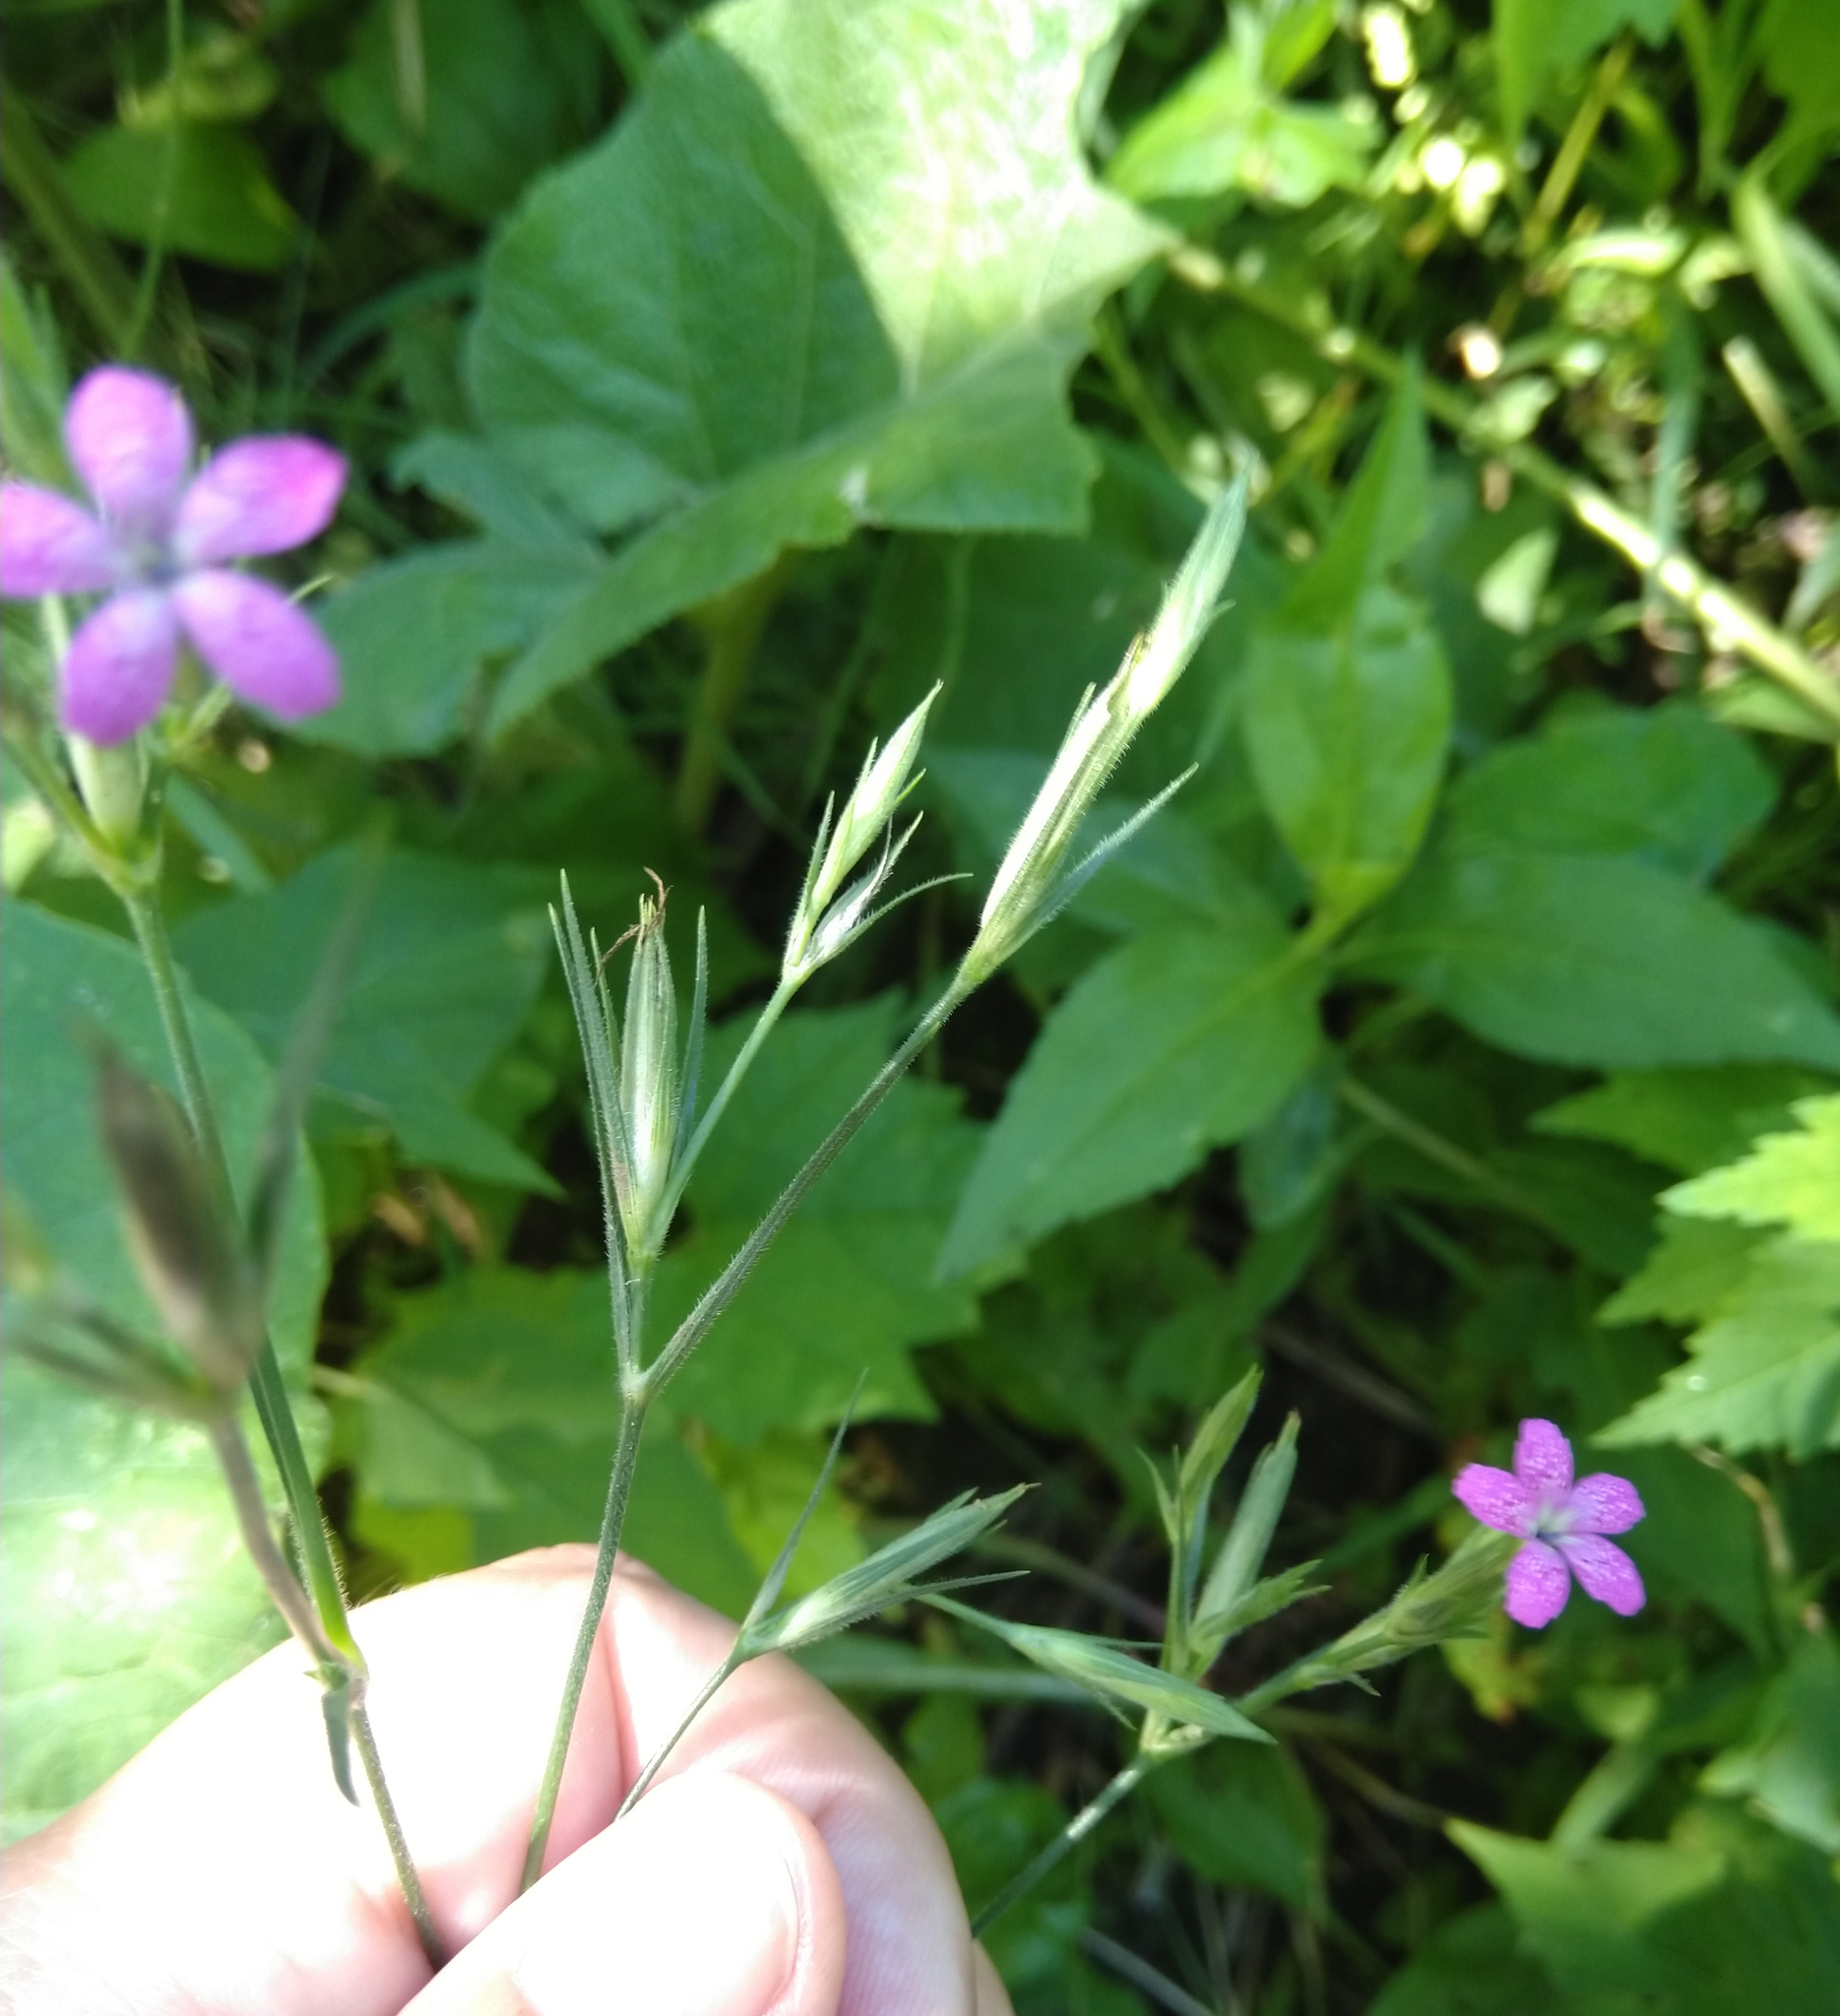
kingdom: Plantae
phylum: Tracheophyta
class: Magnoliopsida
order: Caryophyllales
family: Caryophyllaceae
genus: Dianthus
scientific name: Dianthus armeria
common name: Deptford pink
